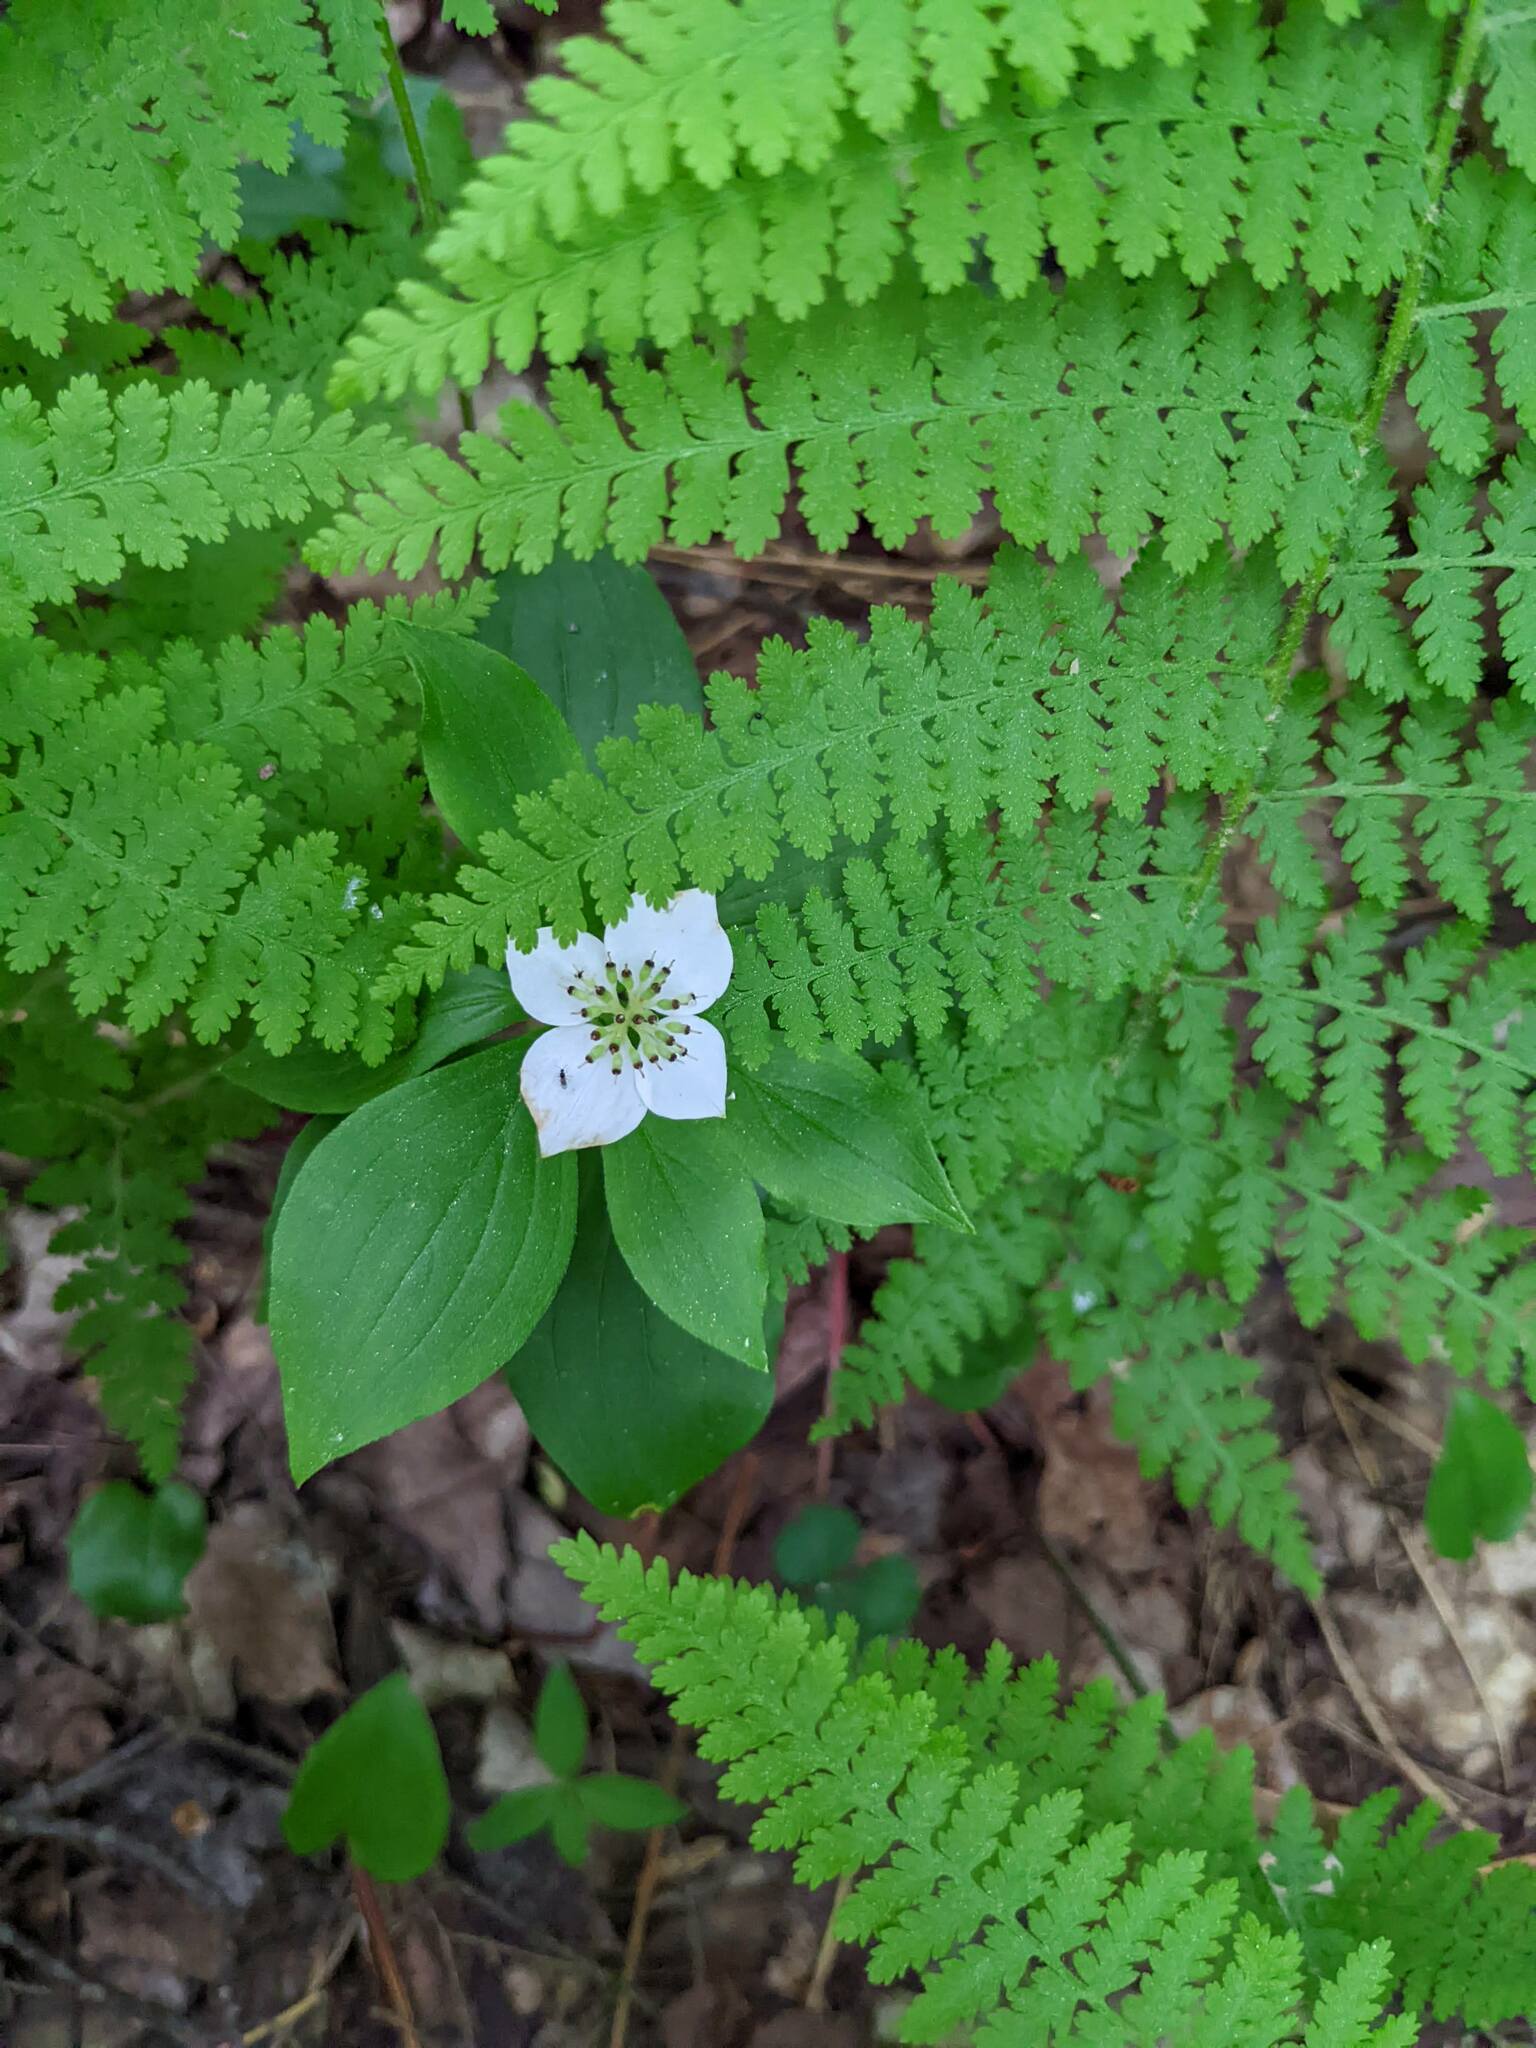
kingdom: Plantae
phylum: Tracheophyta
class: Magnoliopsida
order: Cornales
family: Cornaceae
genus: Cornus
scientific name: Cornus canadensis
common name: Creeping dogwood
